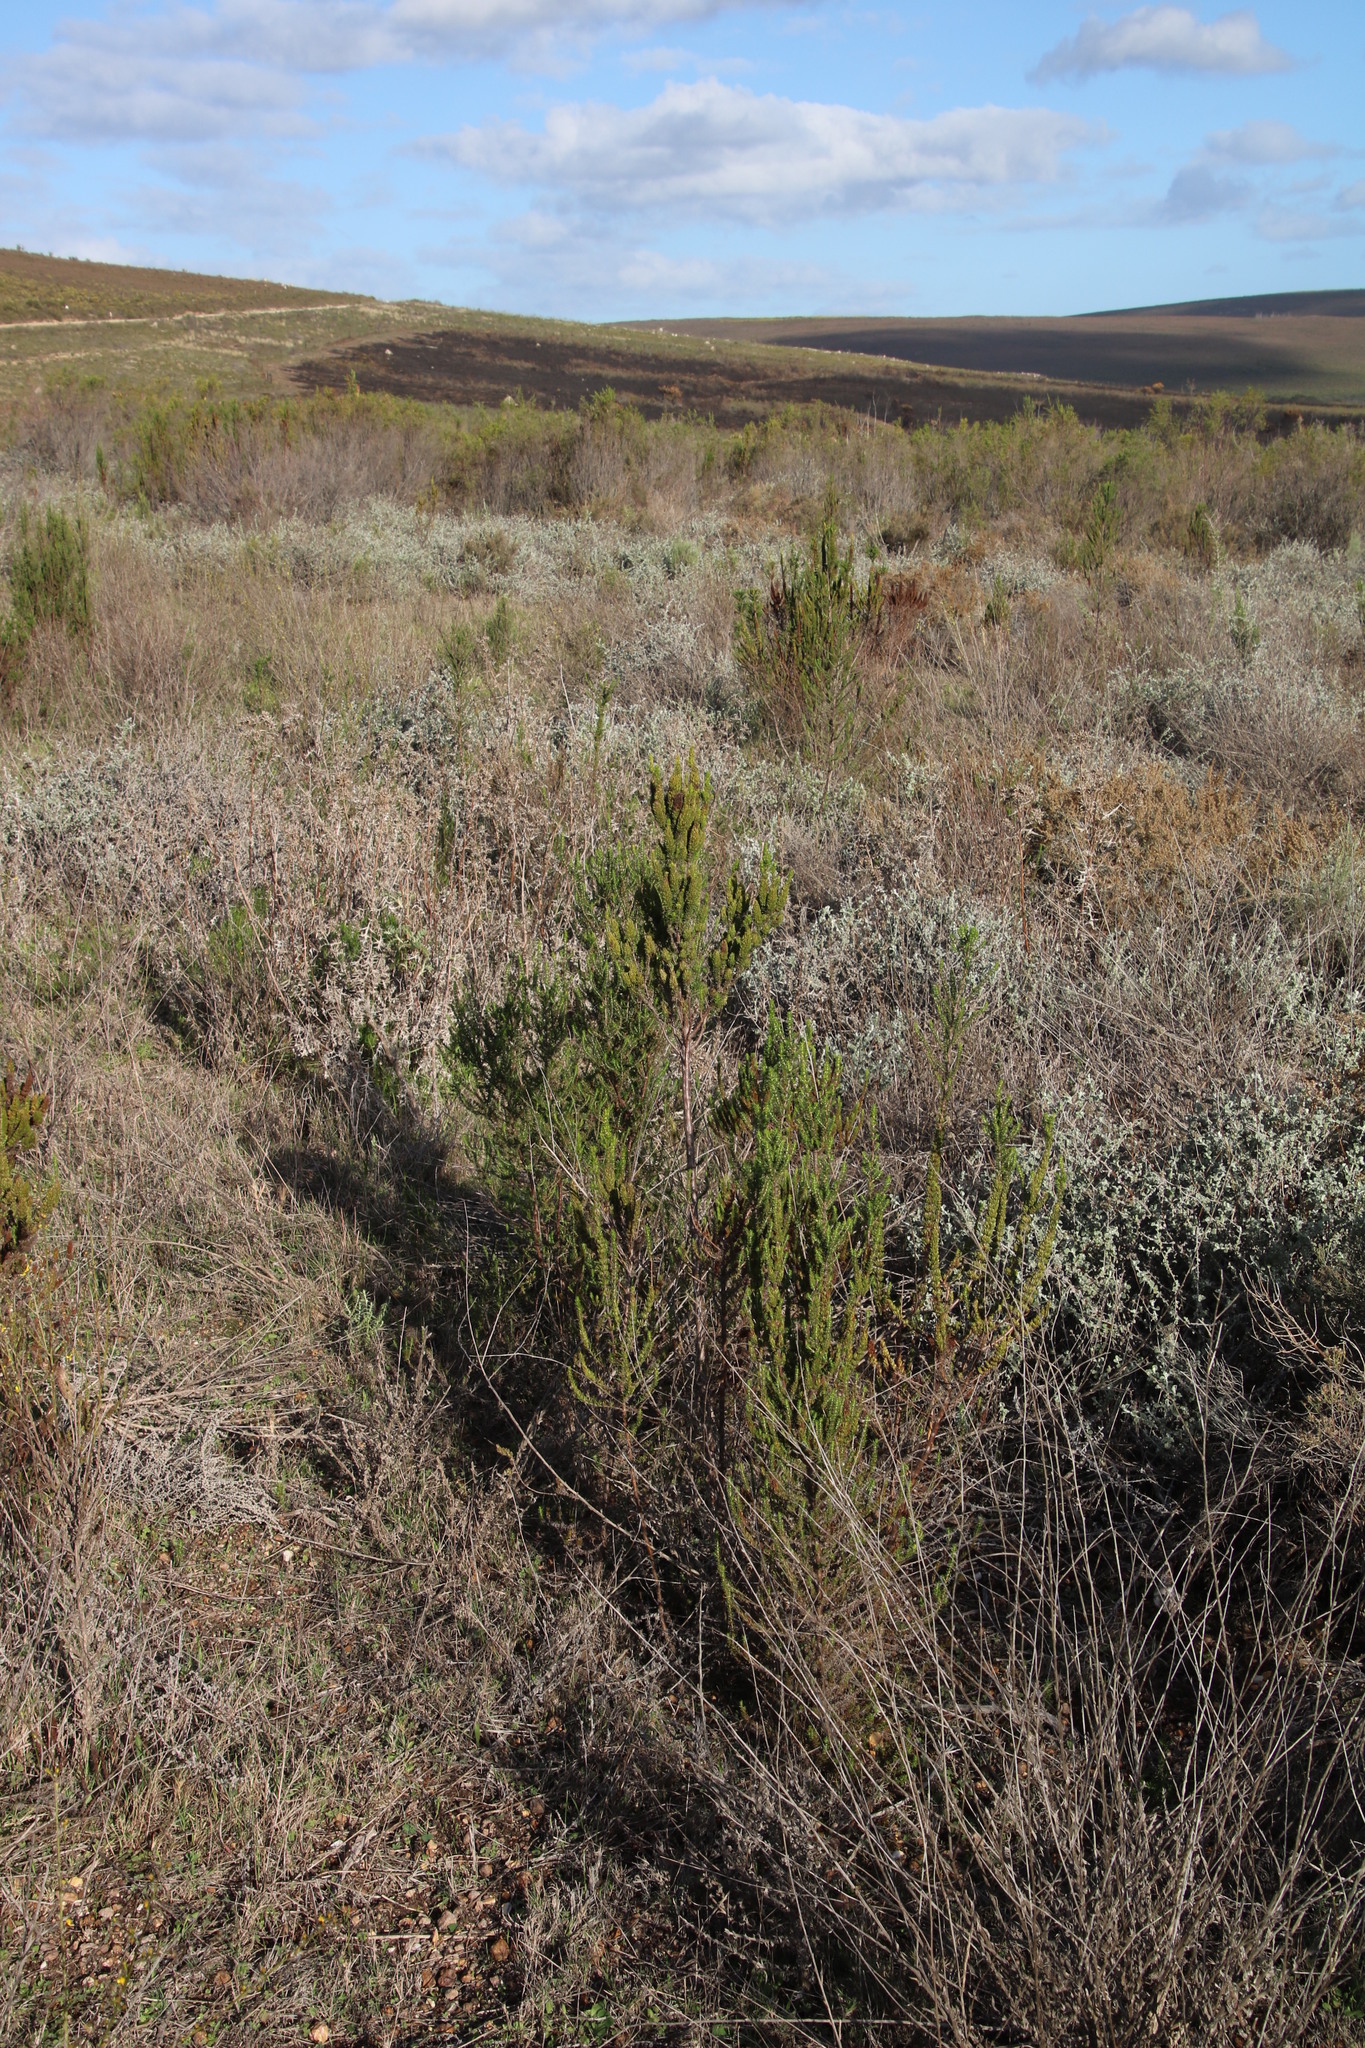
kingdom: Plantae
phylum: Tracheophyta
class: Magnoliopsida
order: Gentianales
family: Rubiaceae
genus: Anthospermum
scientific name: Anthospermum aethiopicum
